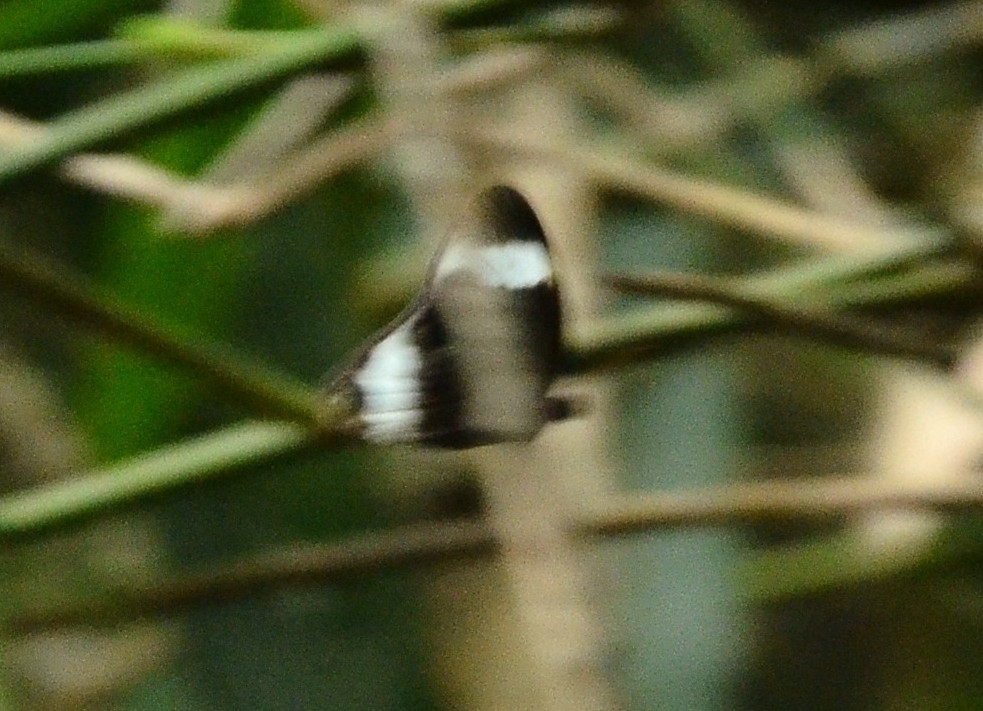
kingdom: Animalia
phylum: Arthropoda
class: Insecta
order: Lepidoptera
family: Nymphalidae
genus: Zipaetis
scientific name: Zipaetis saitis
